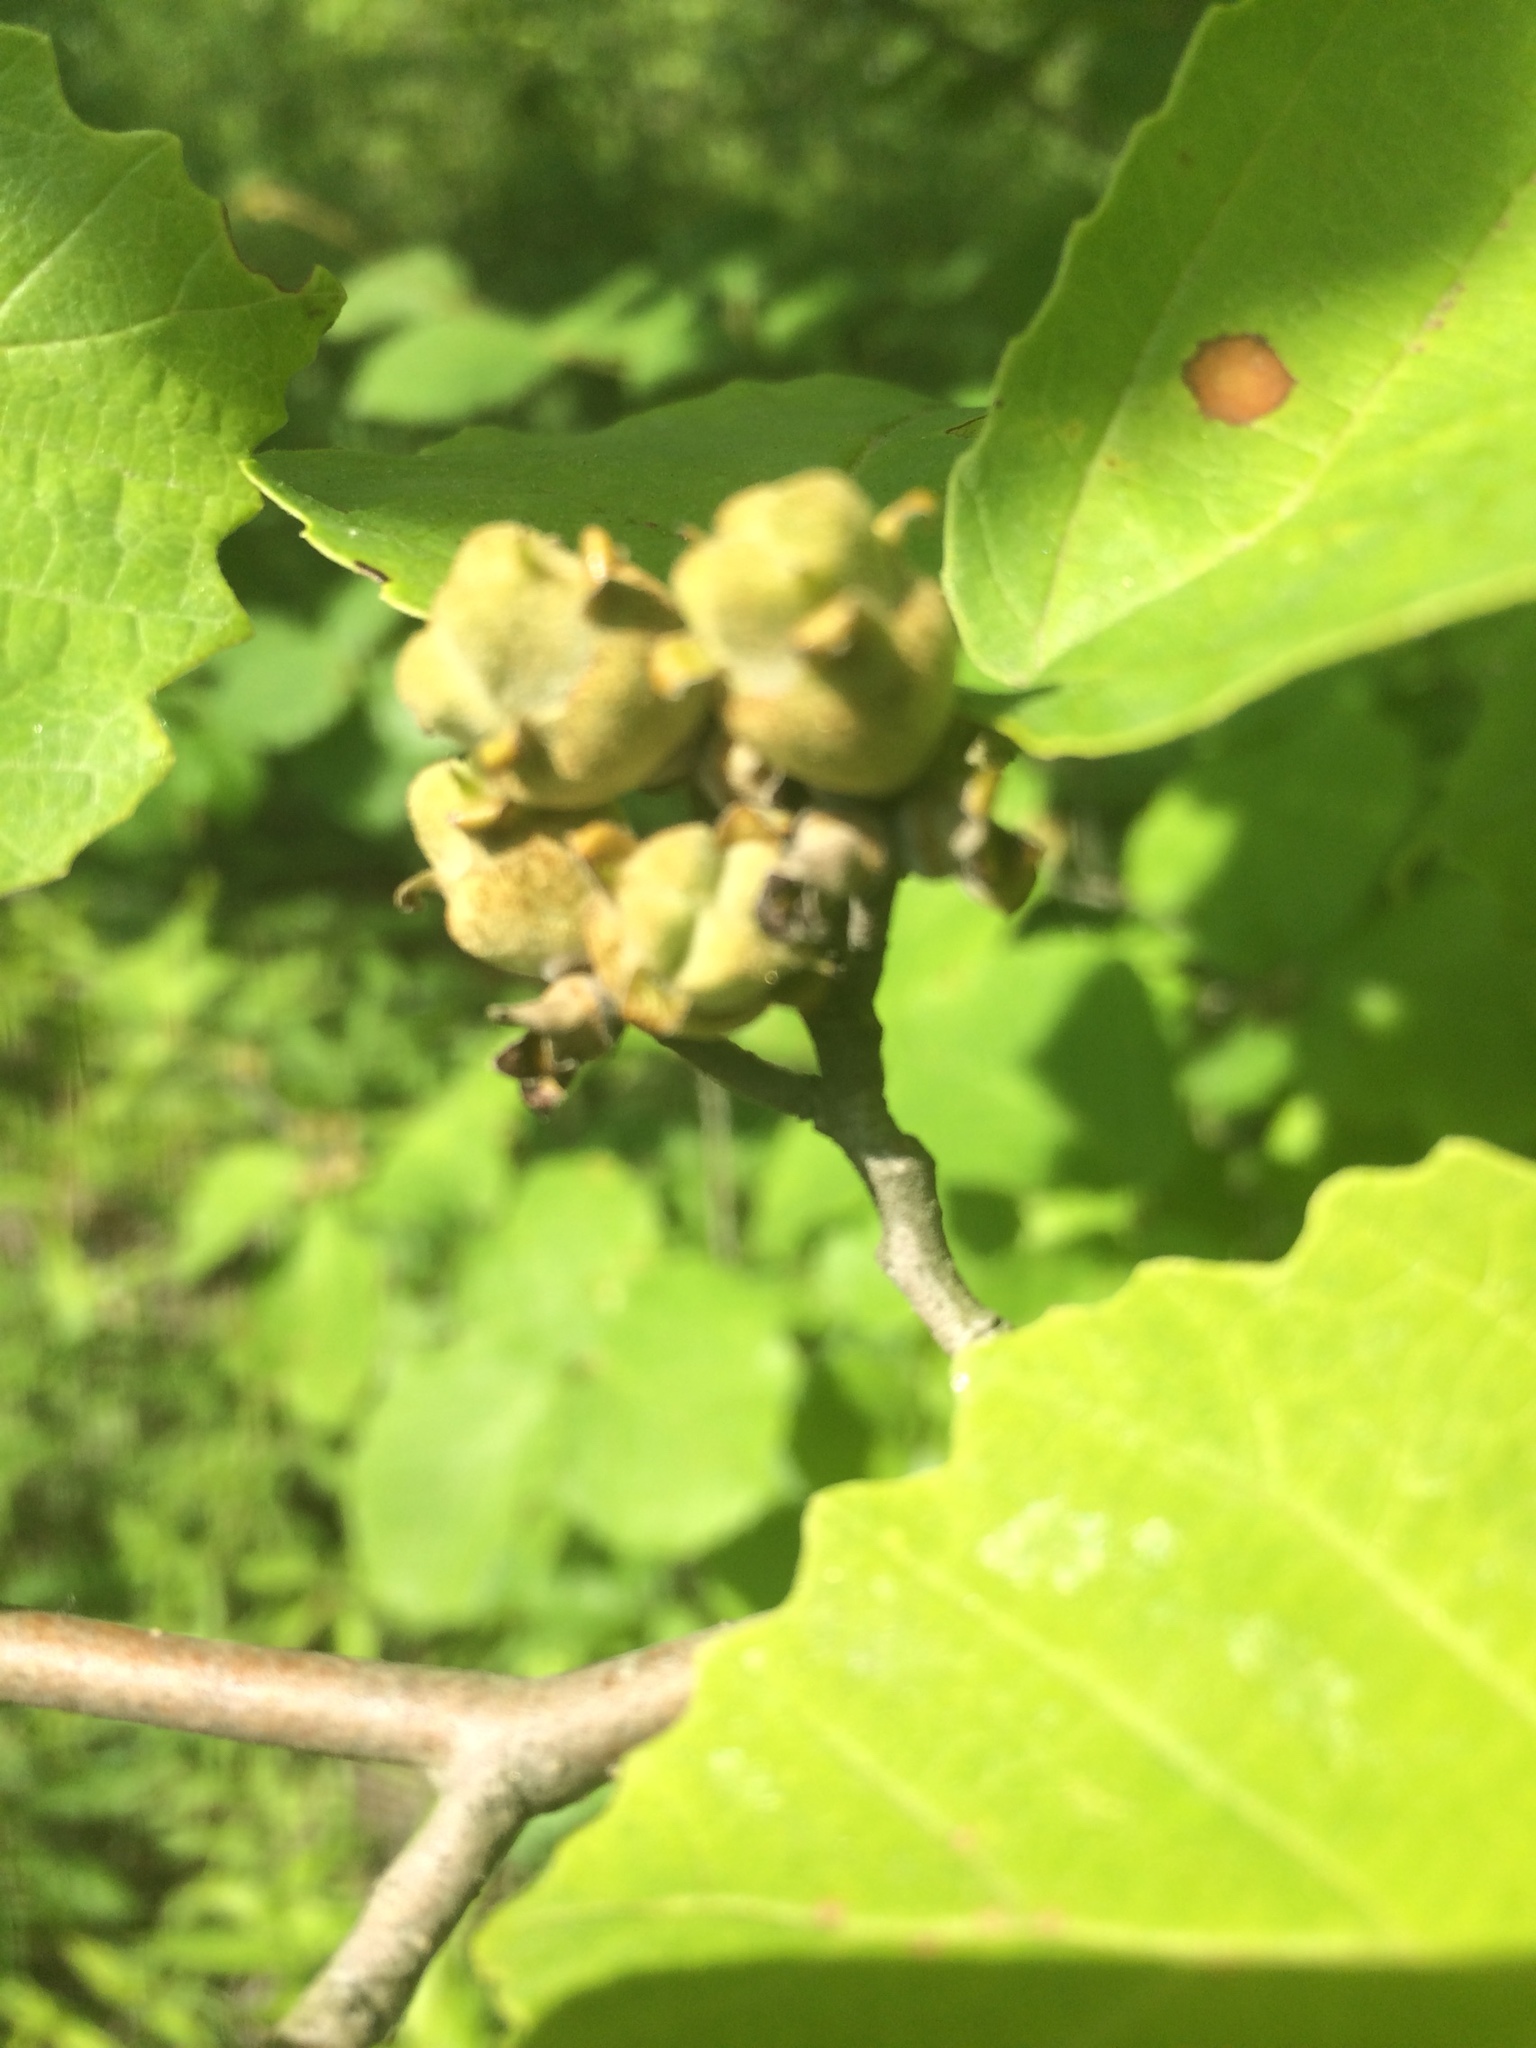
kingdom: Plantae
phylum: Tracheophyta
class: Magnoliopsida
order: Saxifragales
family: Hamamelidaceae
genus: Hamamelis
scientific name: Hamamelis virginiana
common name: Witch-hazel
